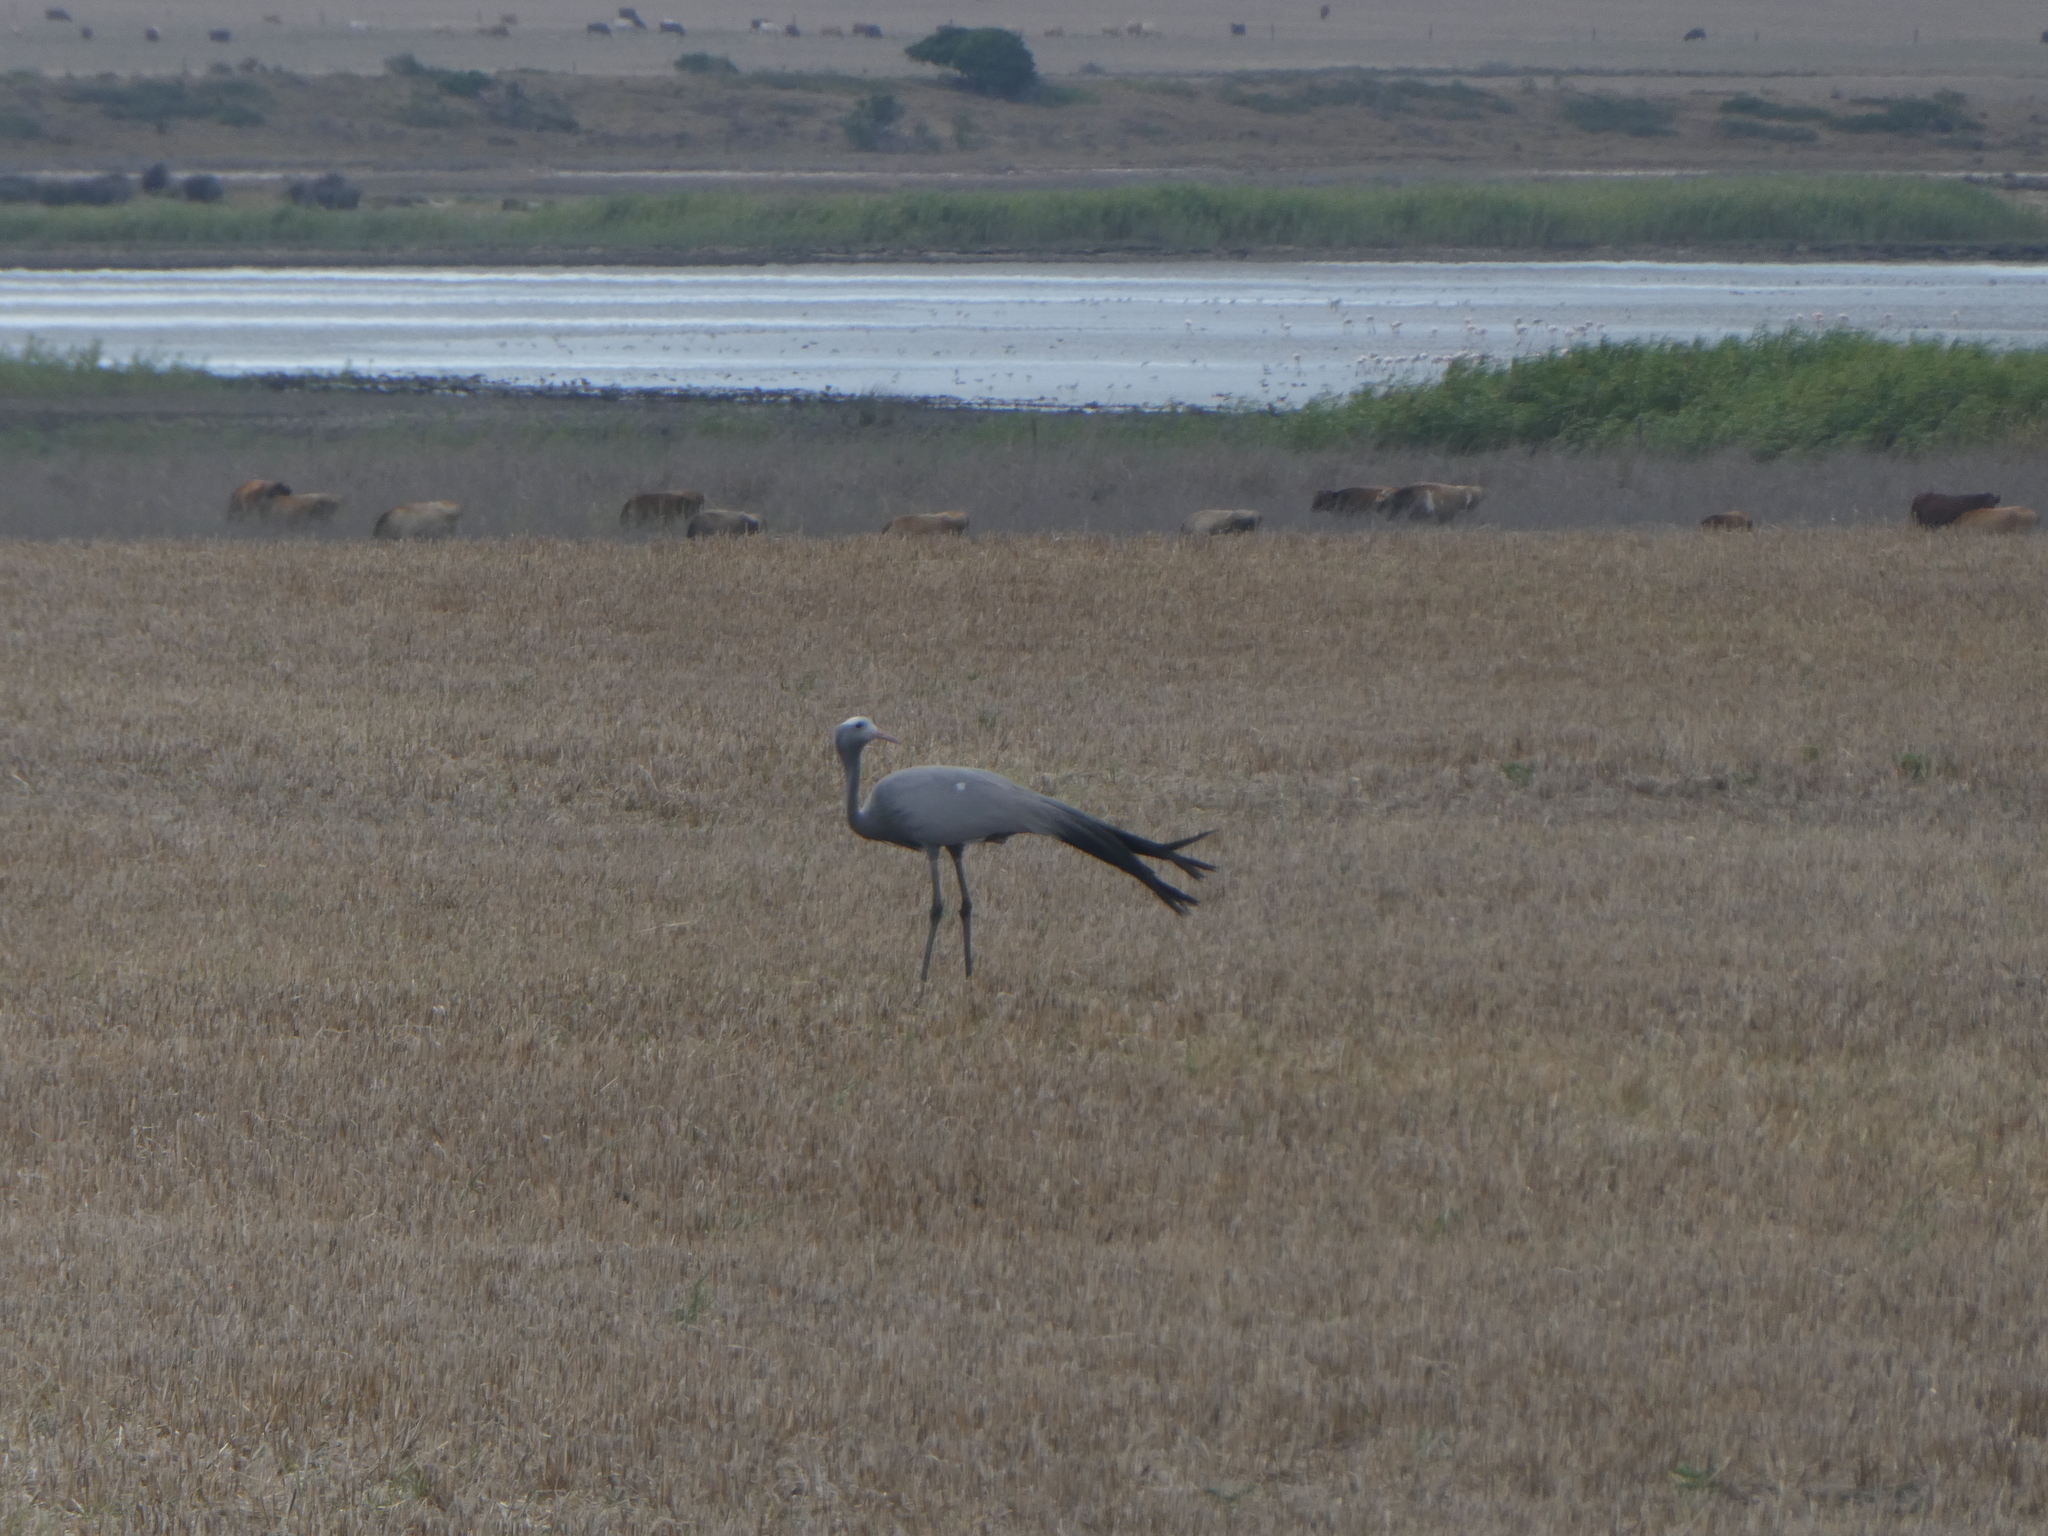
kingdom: Animalia
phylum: Chordata
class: Aves
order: Gruiformes
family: Gruidae
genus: Anthropoides
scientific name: Anthropoides paradiseus
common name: Blue crane
